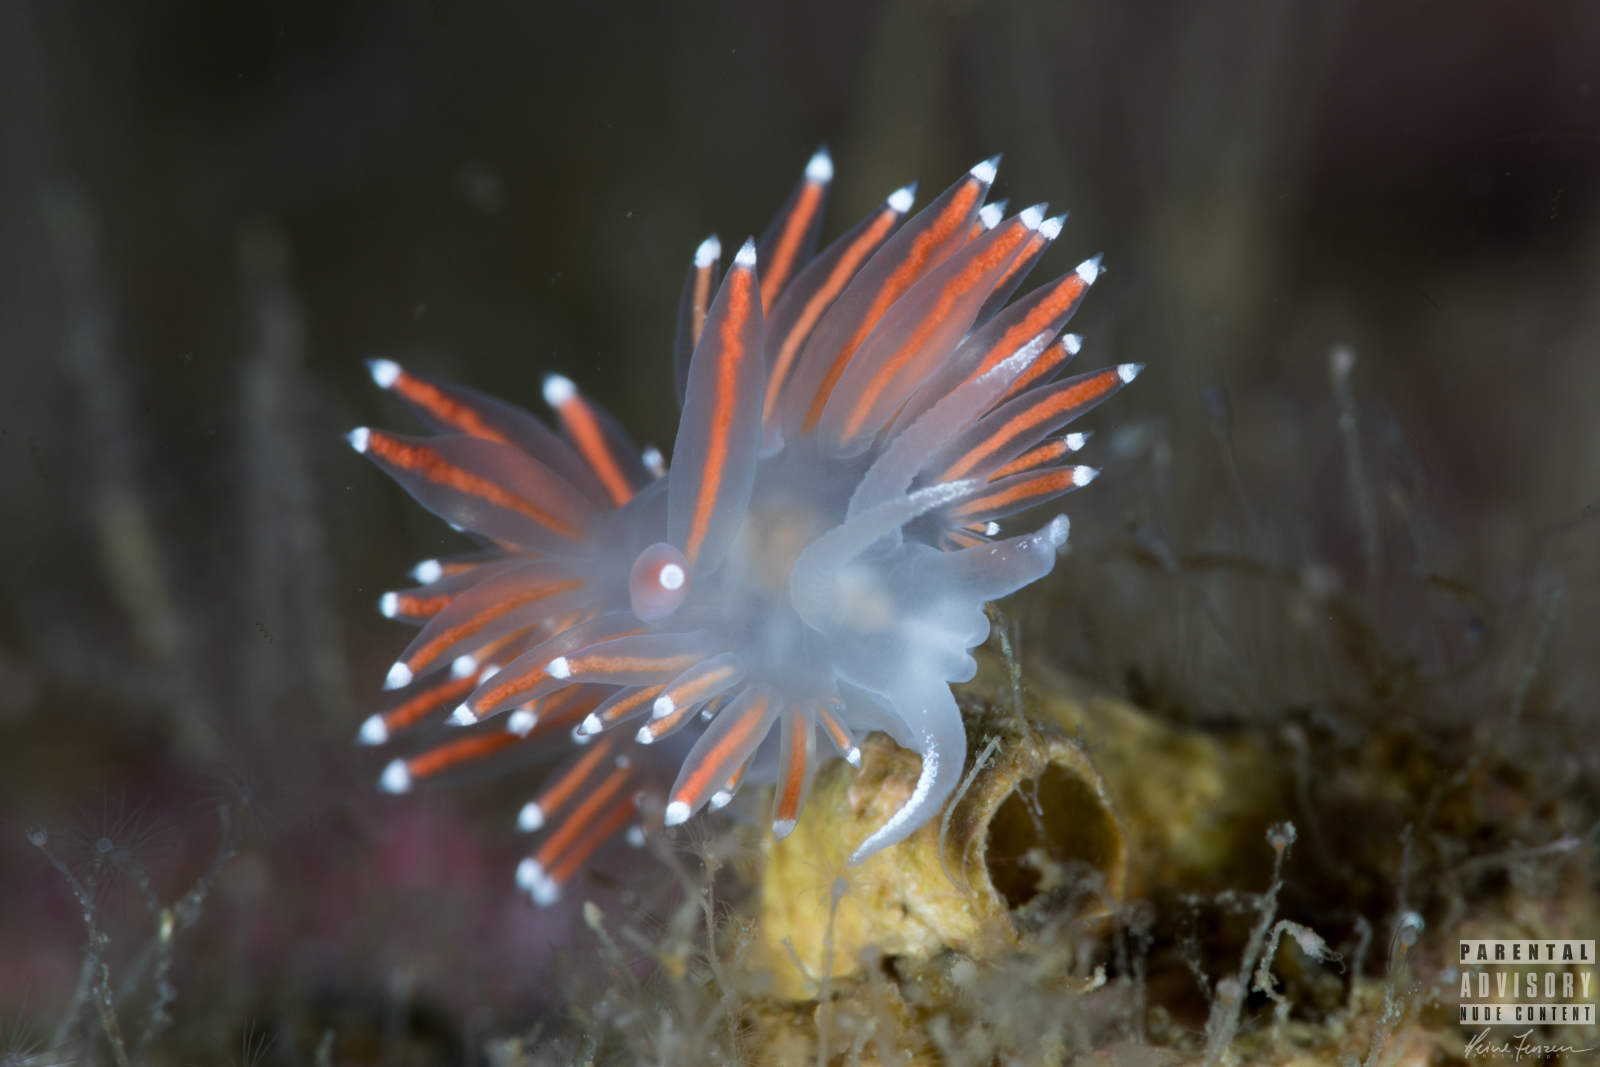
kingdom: Animalia
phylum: Mollusca
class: Gastropoda
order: Nudibranchia
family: Coryphellidae
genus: Coryphella
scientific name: Coryphella browni
